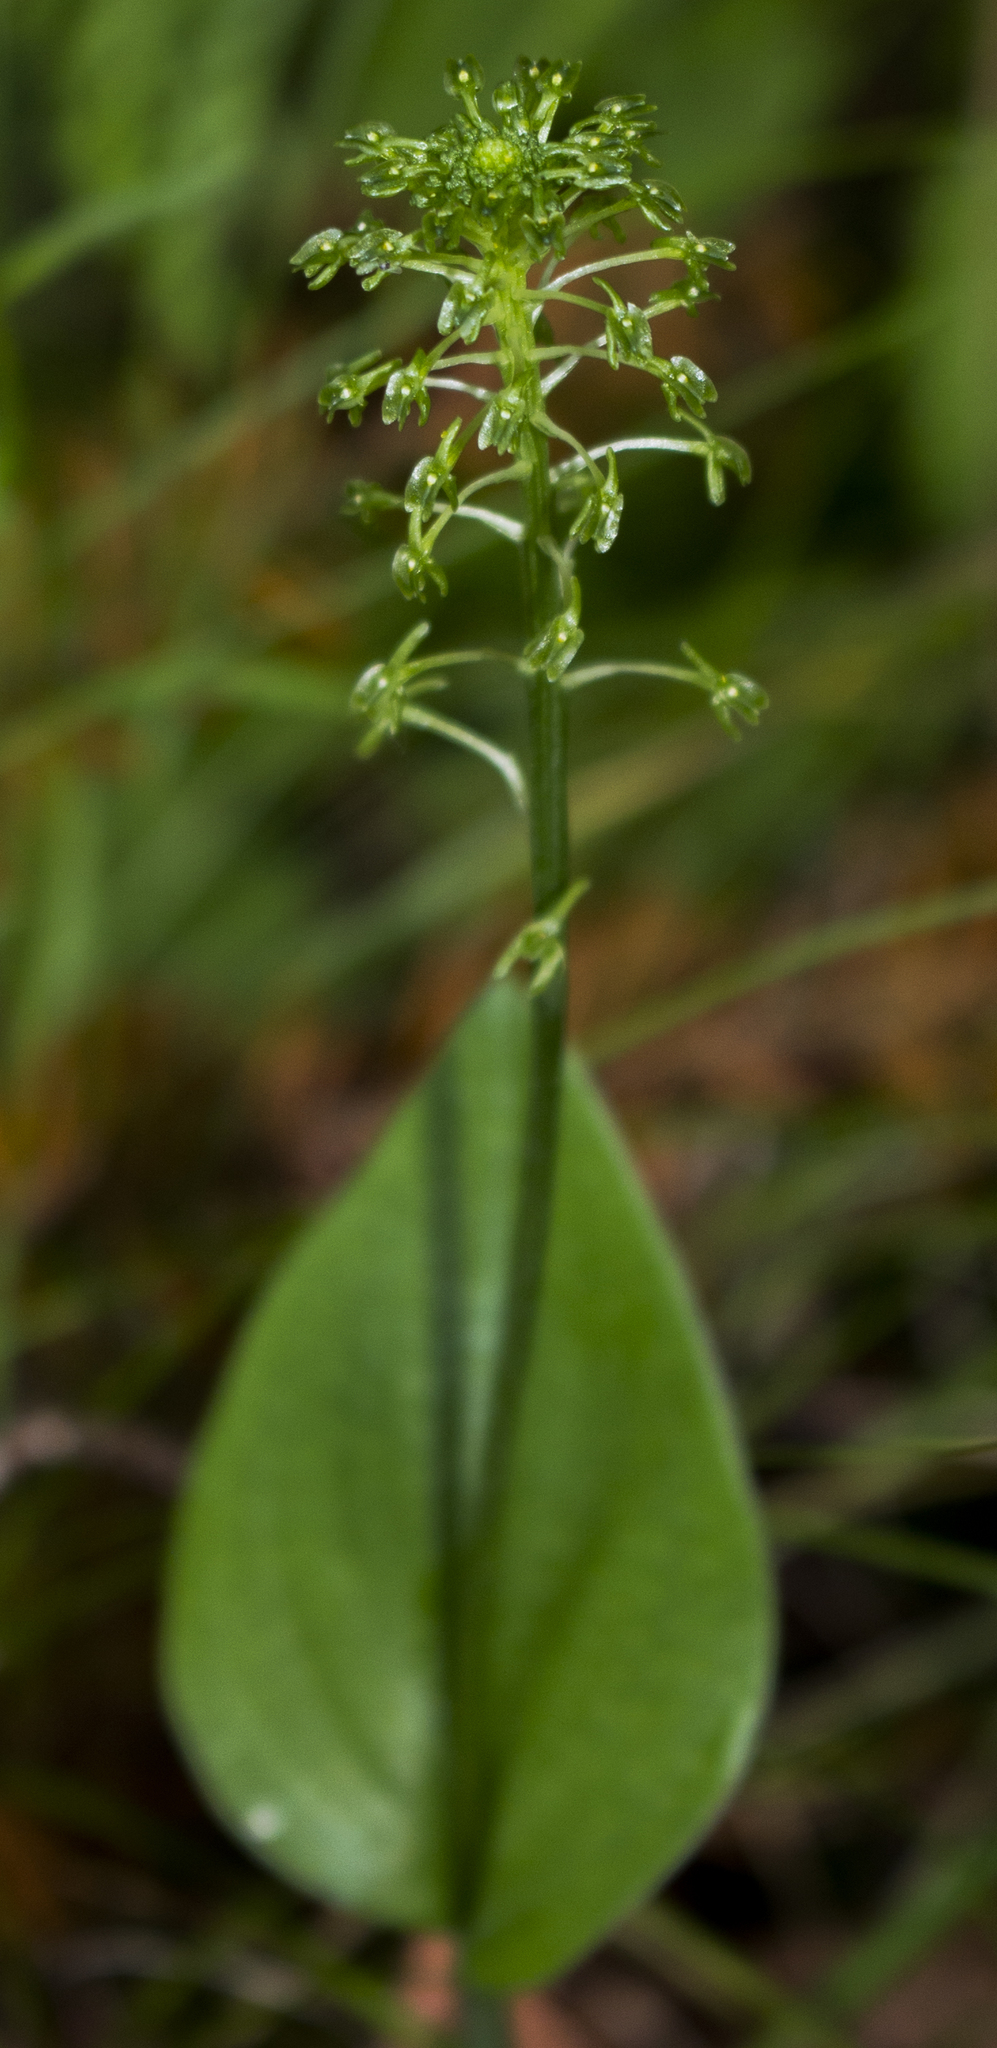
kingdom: Plantae
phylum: Tracheophyta
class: Liliopsida
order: Asparagales
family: Orchidaceae
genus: Malaxis
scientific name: Malaxis unifolia
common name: Green adder's-mouth
